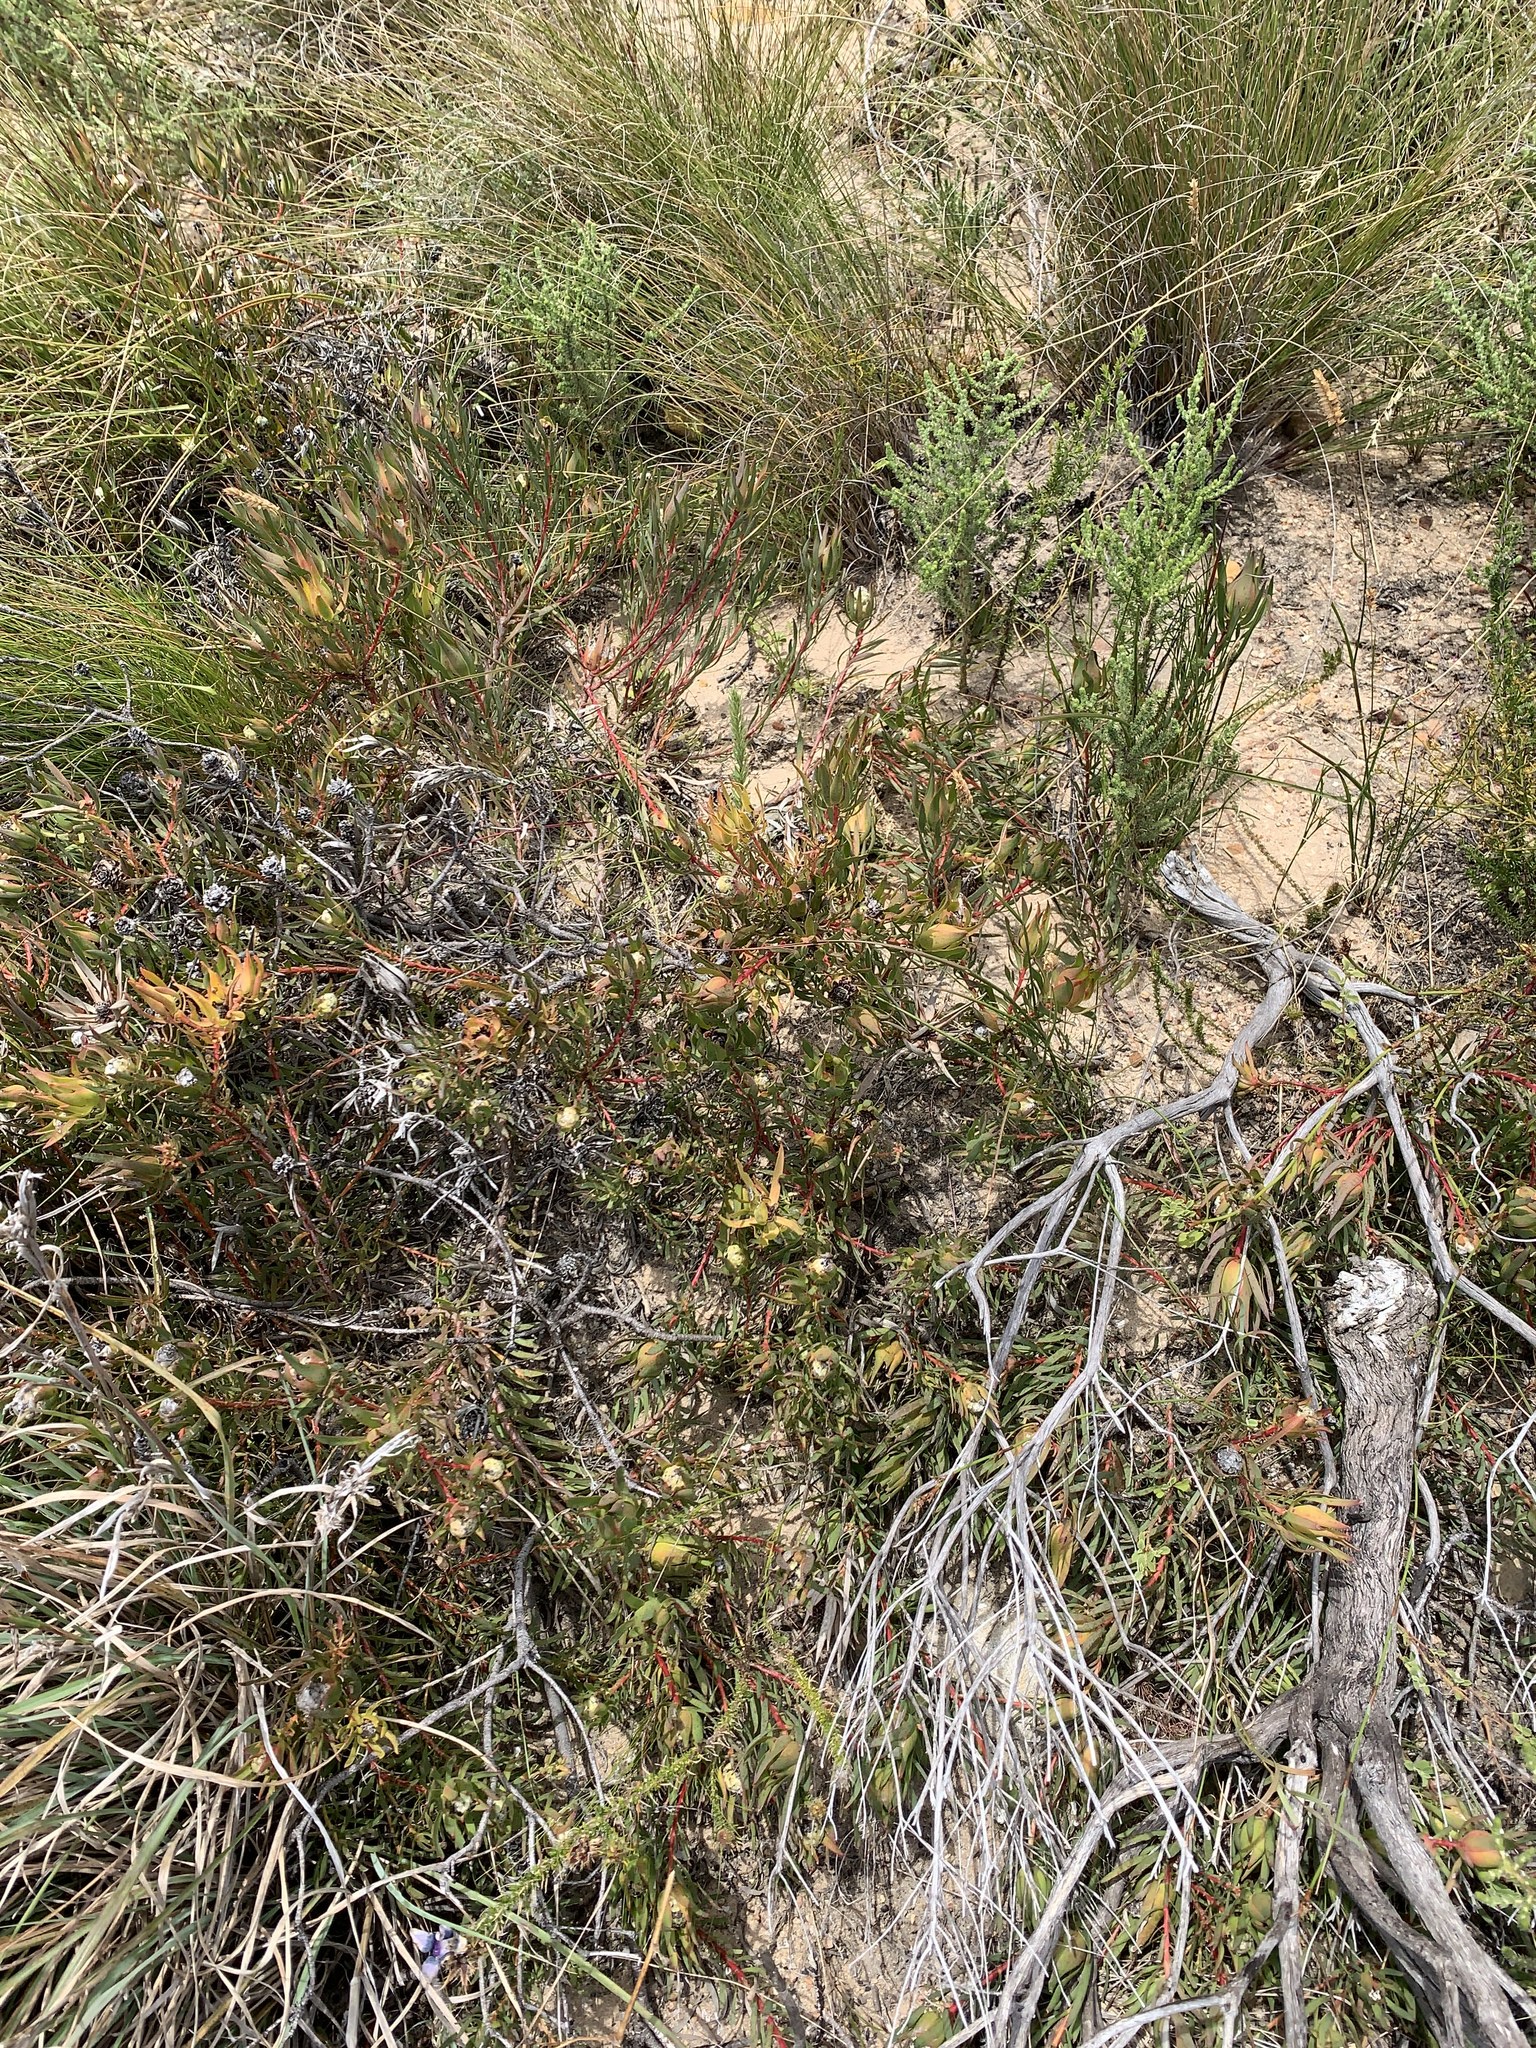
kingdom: Plantae
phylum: Tracheophyta
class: Magnoliopsida
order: Proteales
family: Proteaceae
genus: Leucadendron
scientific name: Leucadendron salignum
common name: Common sunshine conebush
